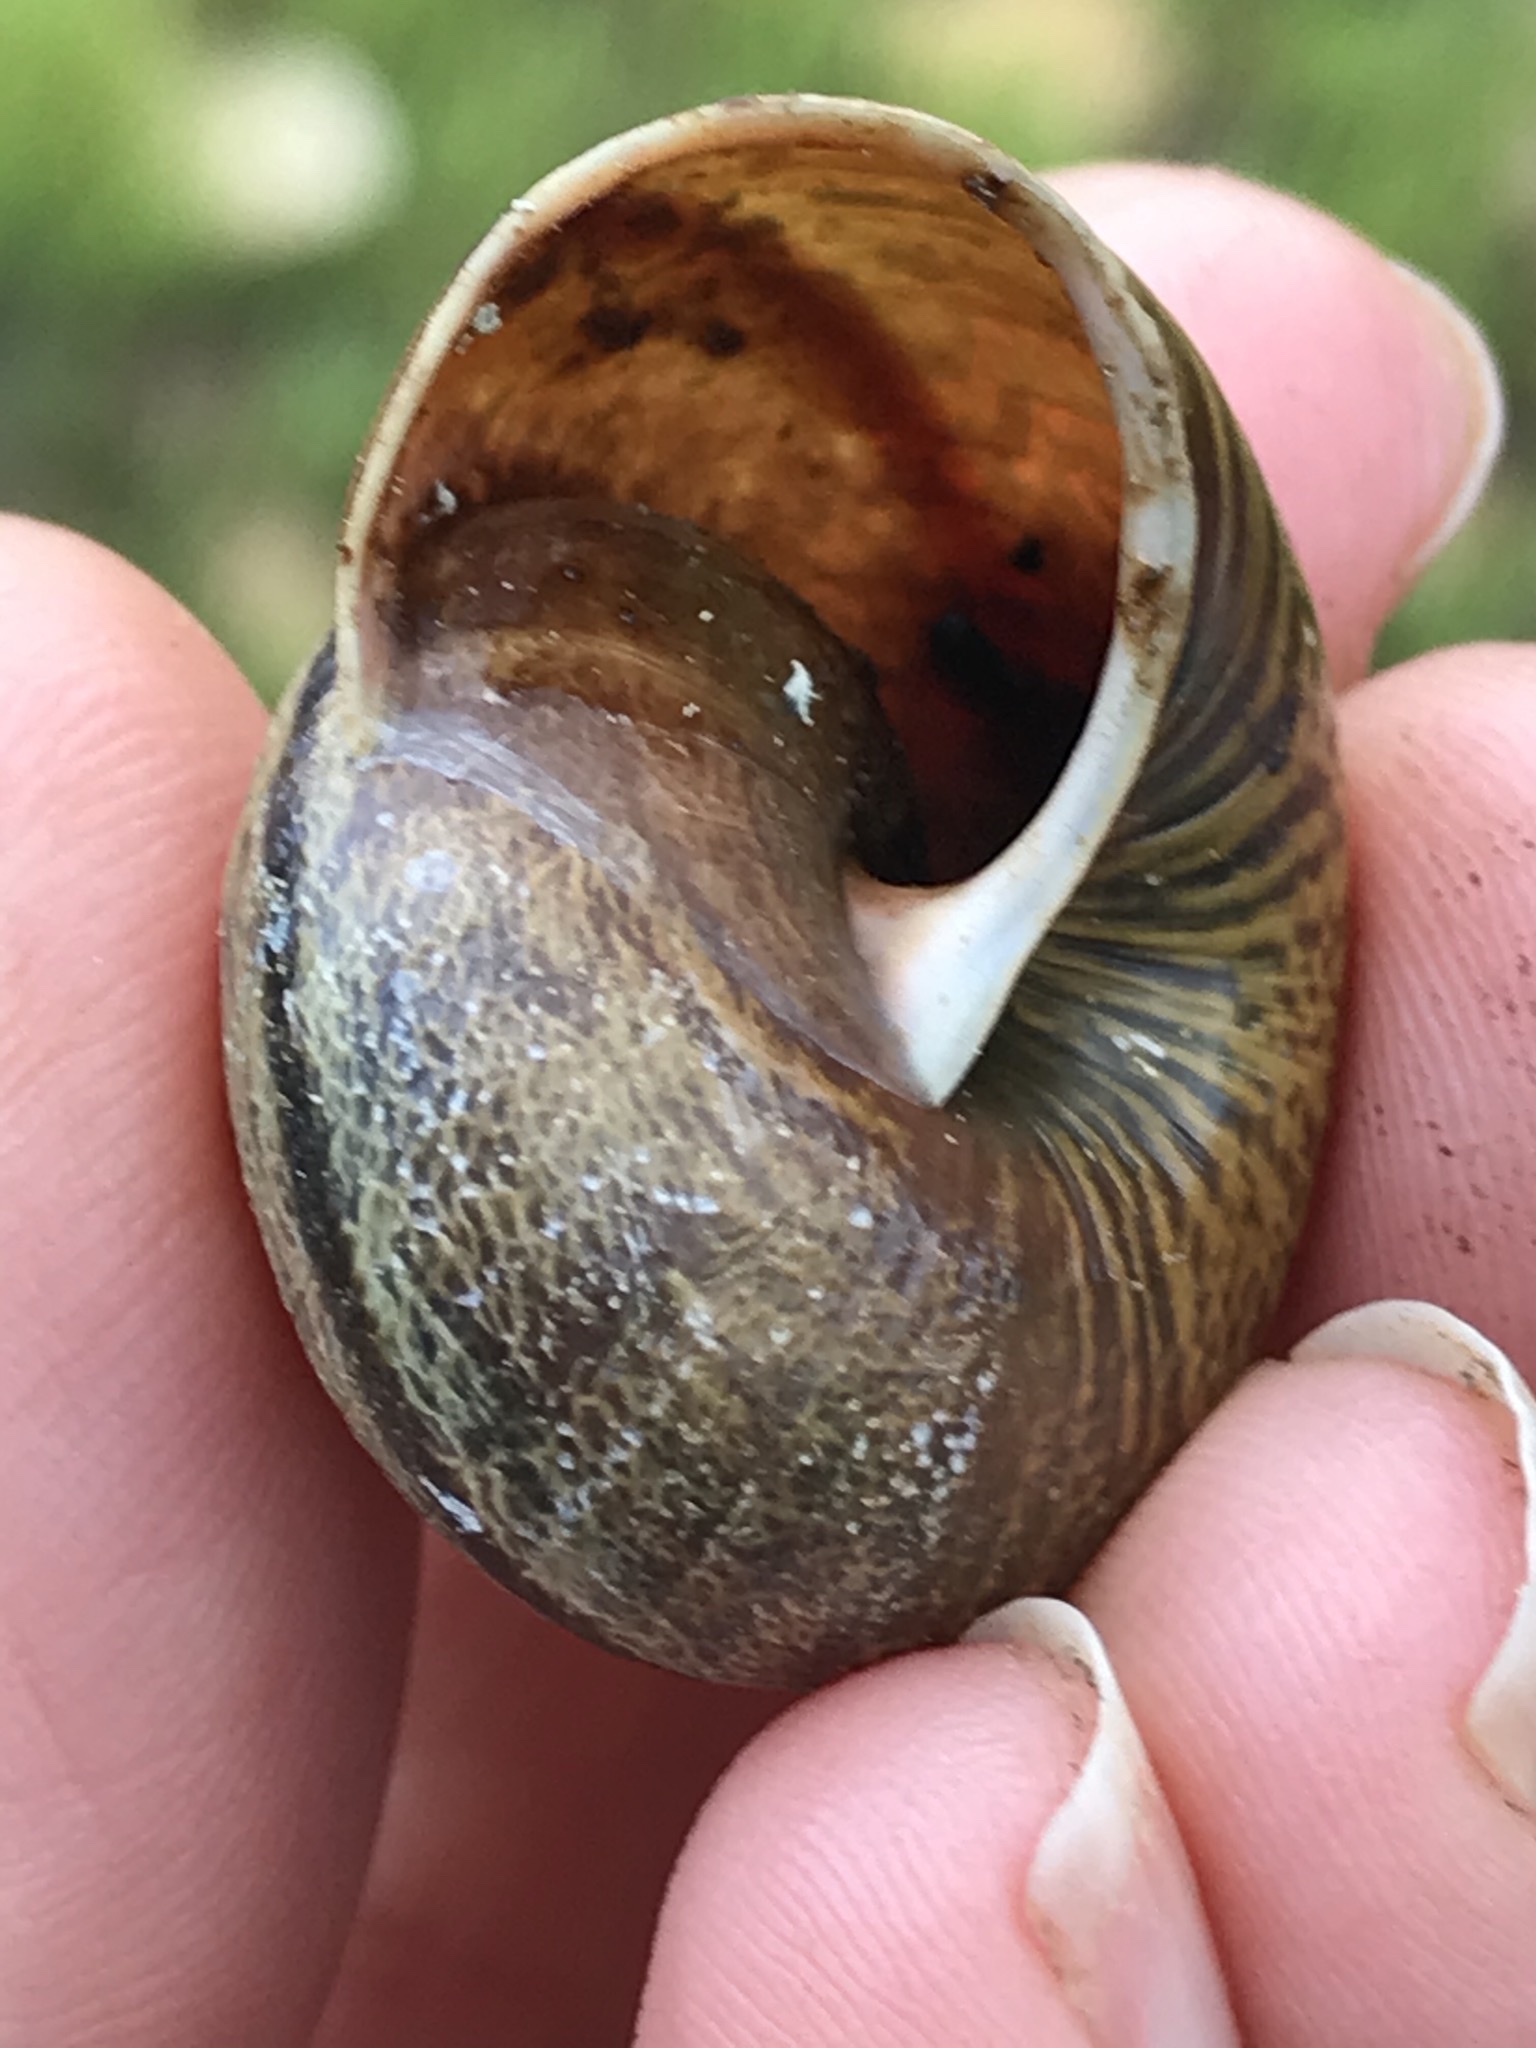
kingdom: Animalia
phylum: Mollusca
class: Gastropoda
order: Stylommatophora
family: Xanthonychidae
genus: Helminthoglypta
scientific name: Helminthoglypta arrosa
